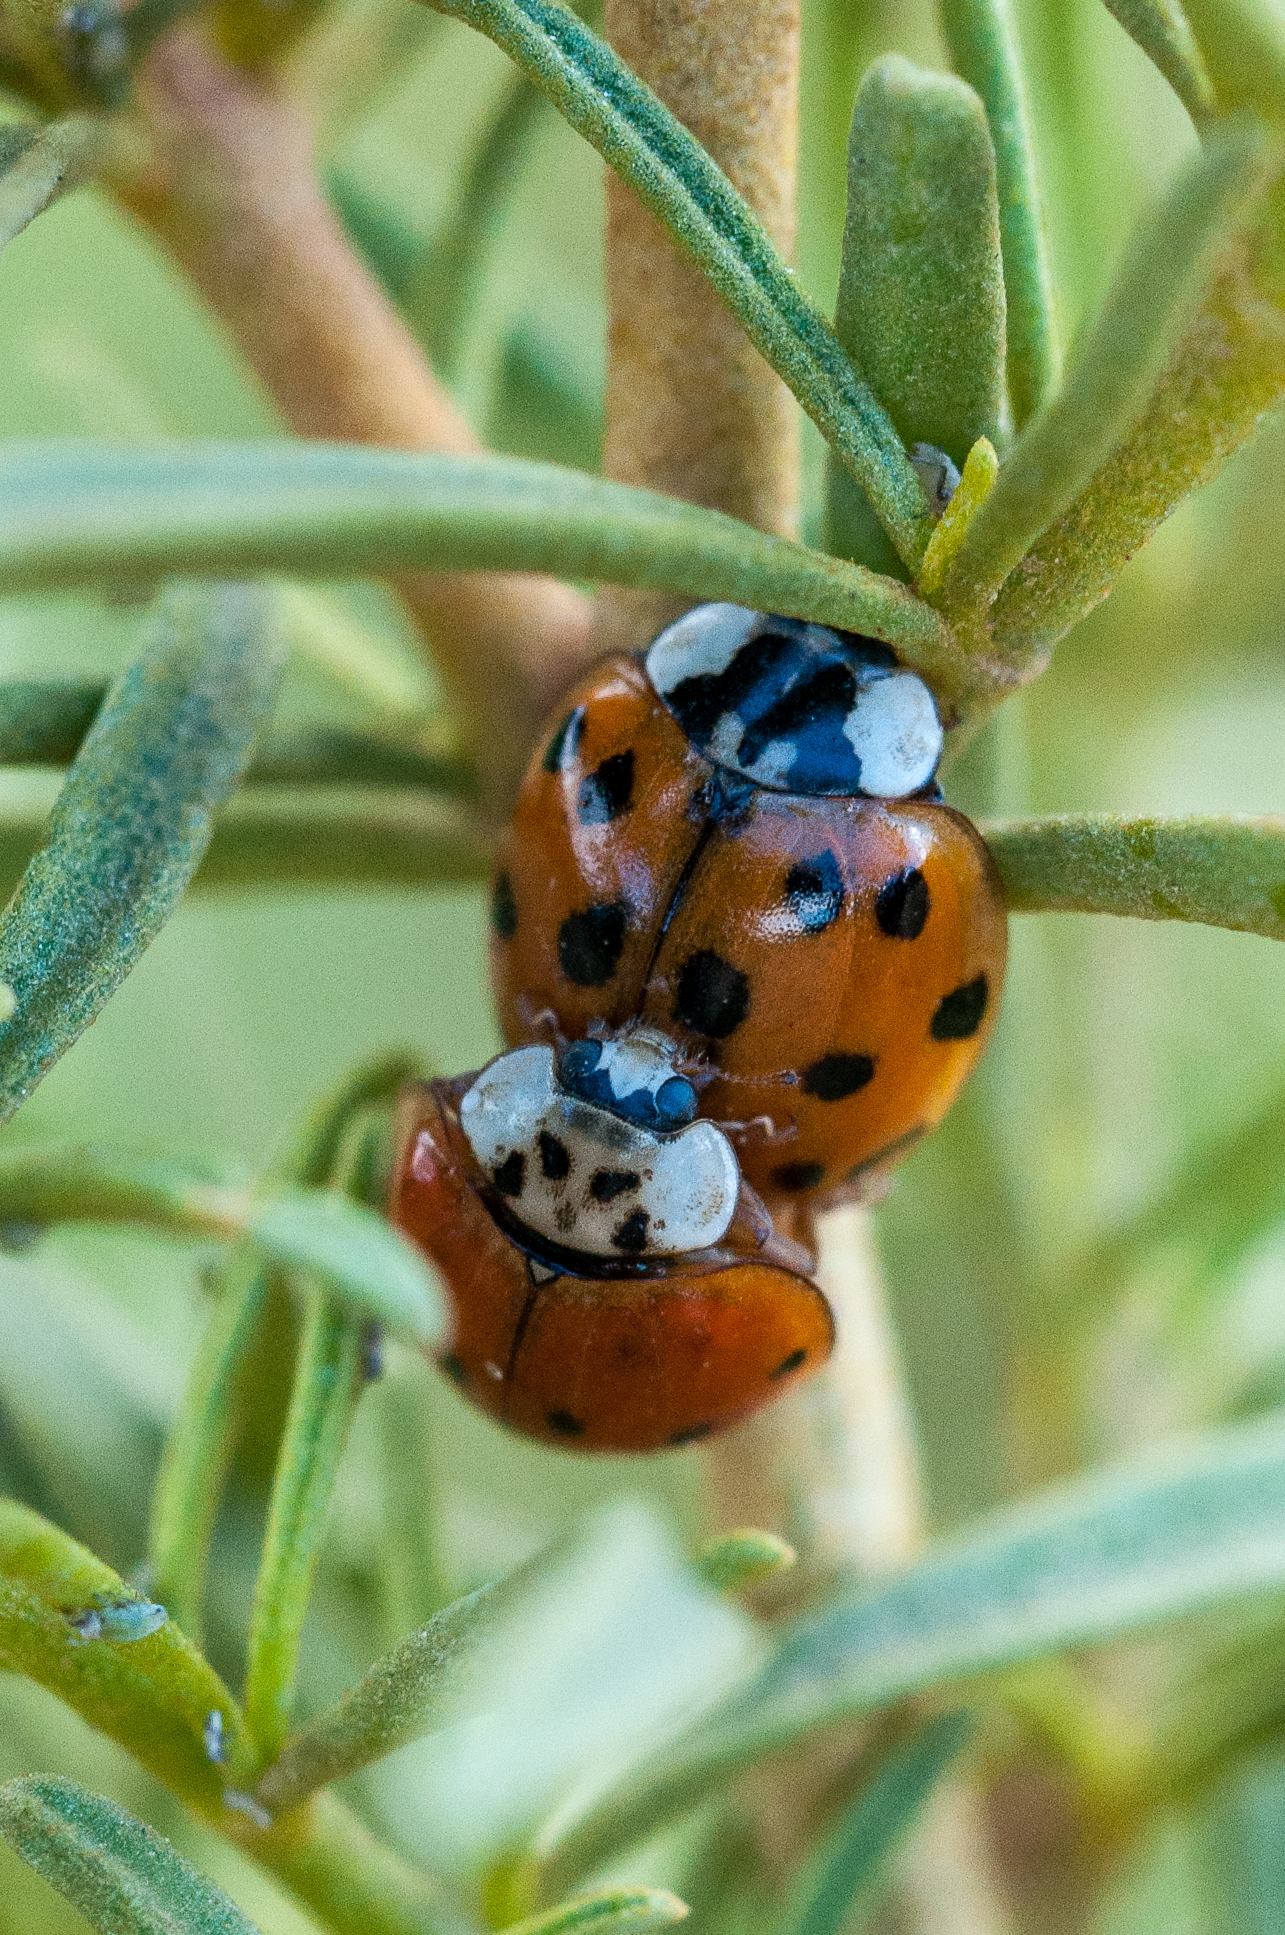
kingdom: Animalia
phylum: Arthropoda
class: Insecta
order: Coleoptera
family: Coccinellidae
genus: Harmonia
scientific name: Harmonia axyridis
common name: Harlequin ladybird
